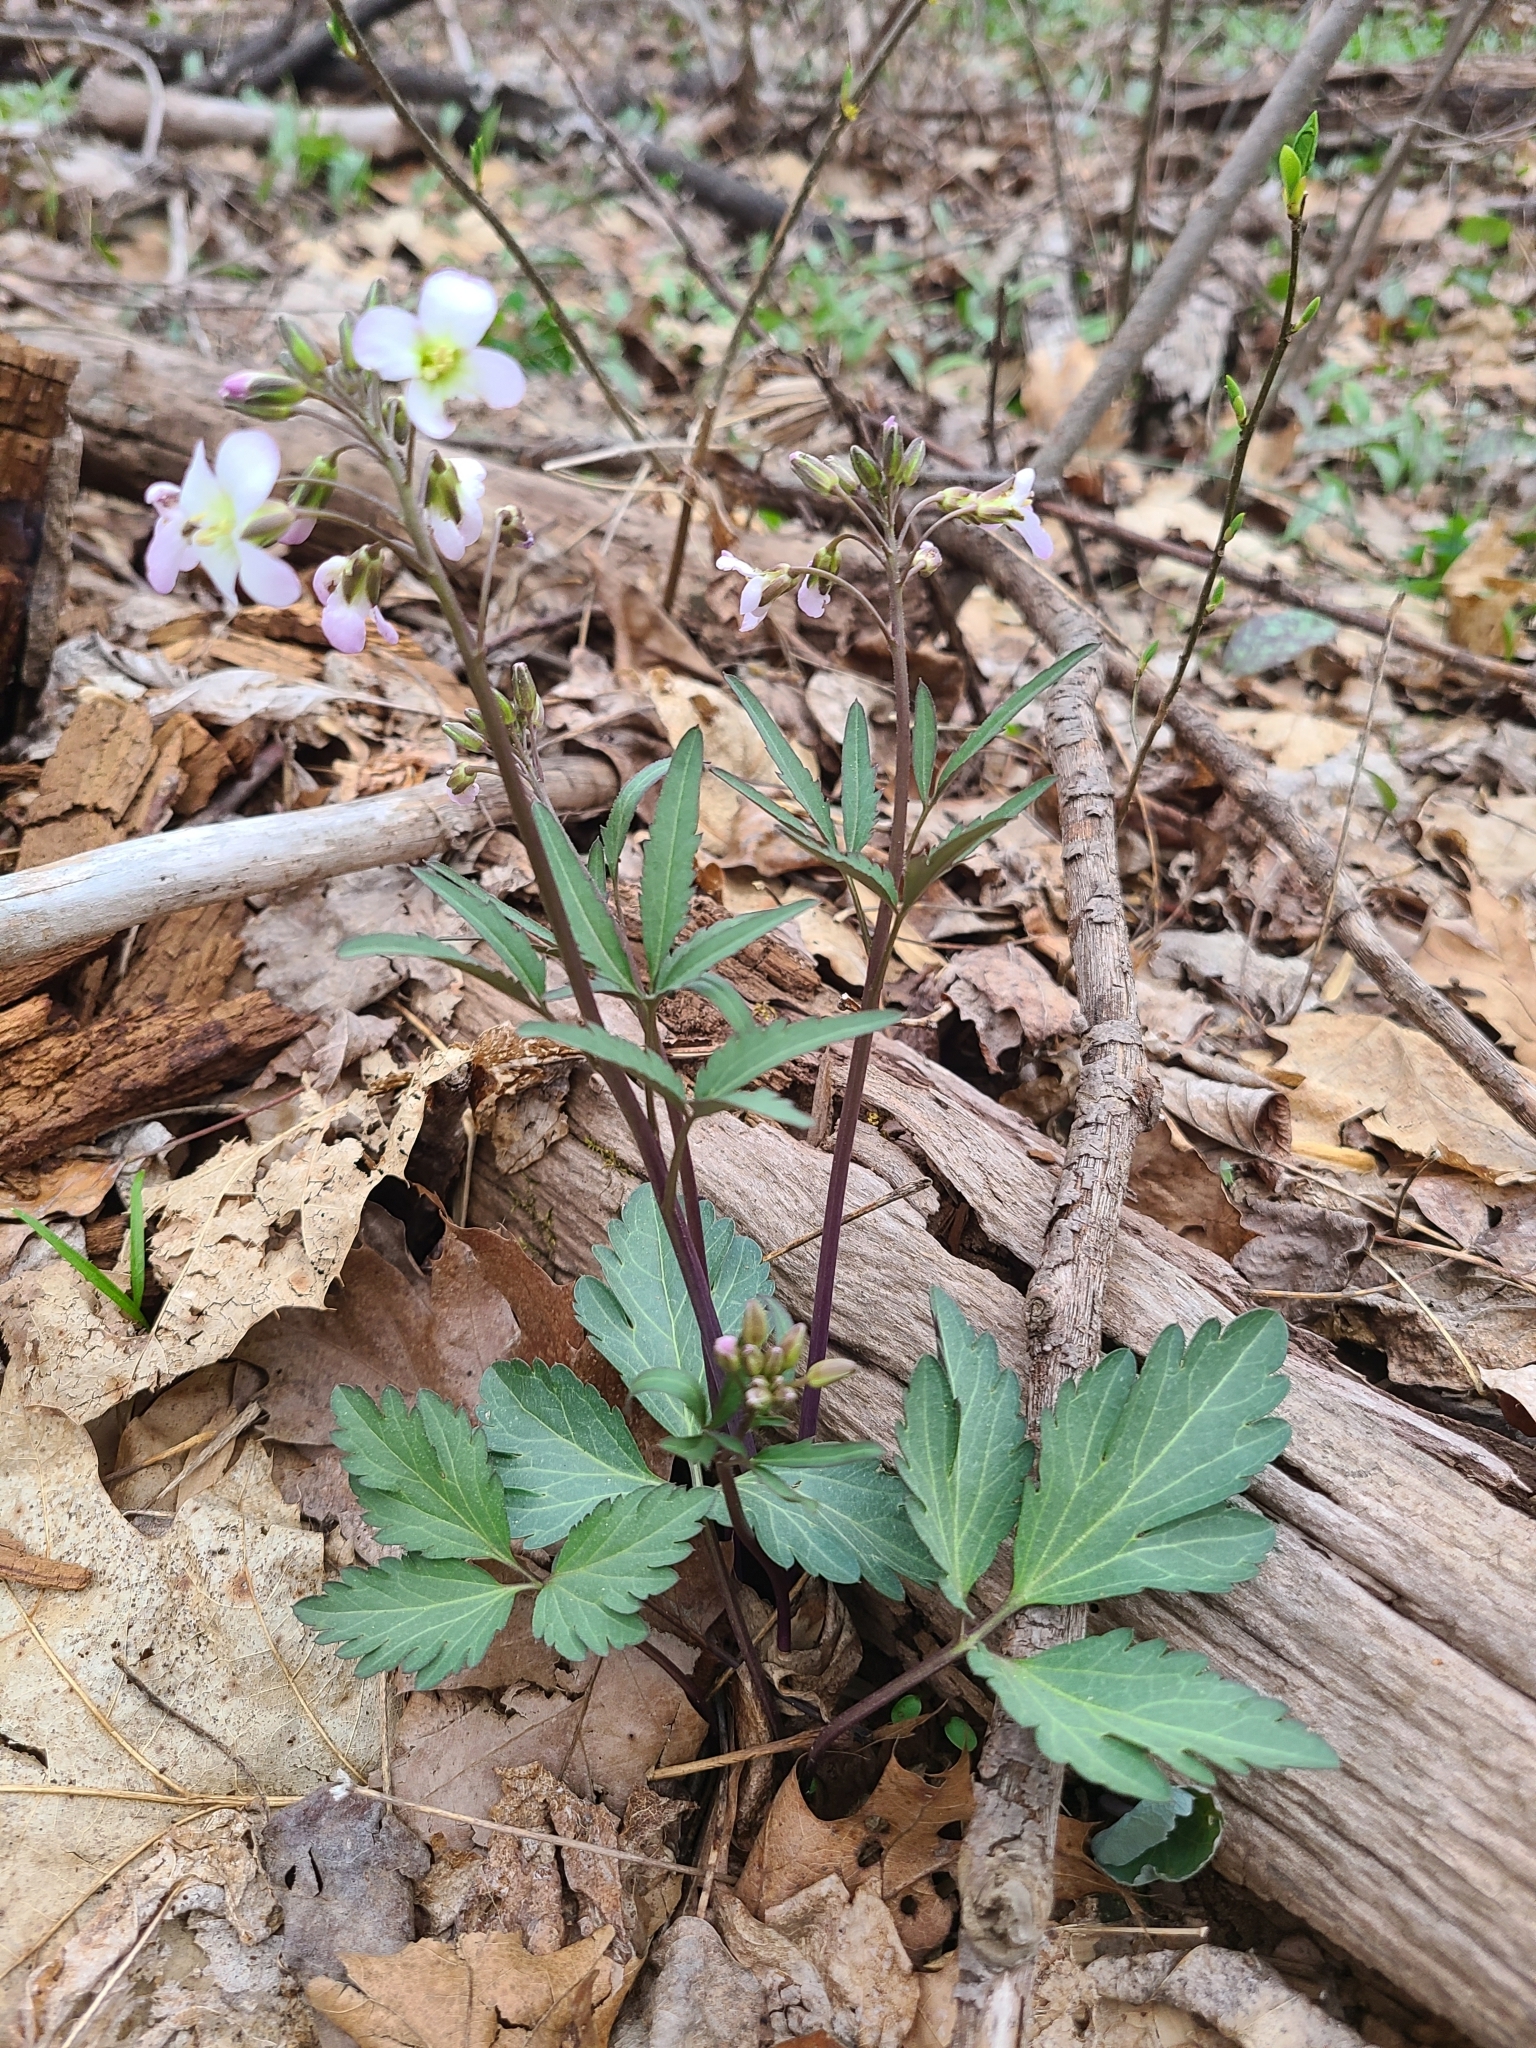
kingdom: Plantae
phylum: Tracheophyta
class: Magnoliopsida
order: Brassicales
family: Brassicaceae
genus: Cardamine
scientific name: Cardamine angustata
